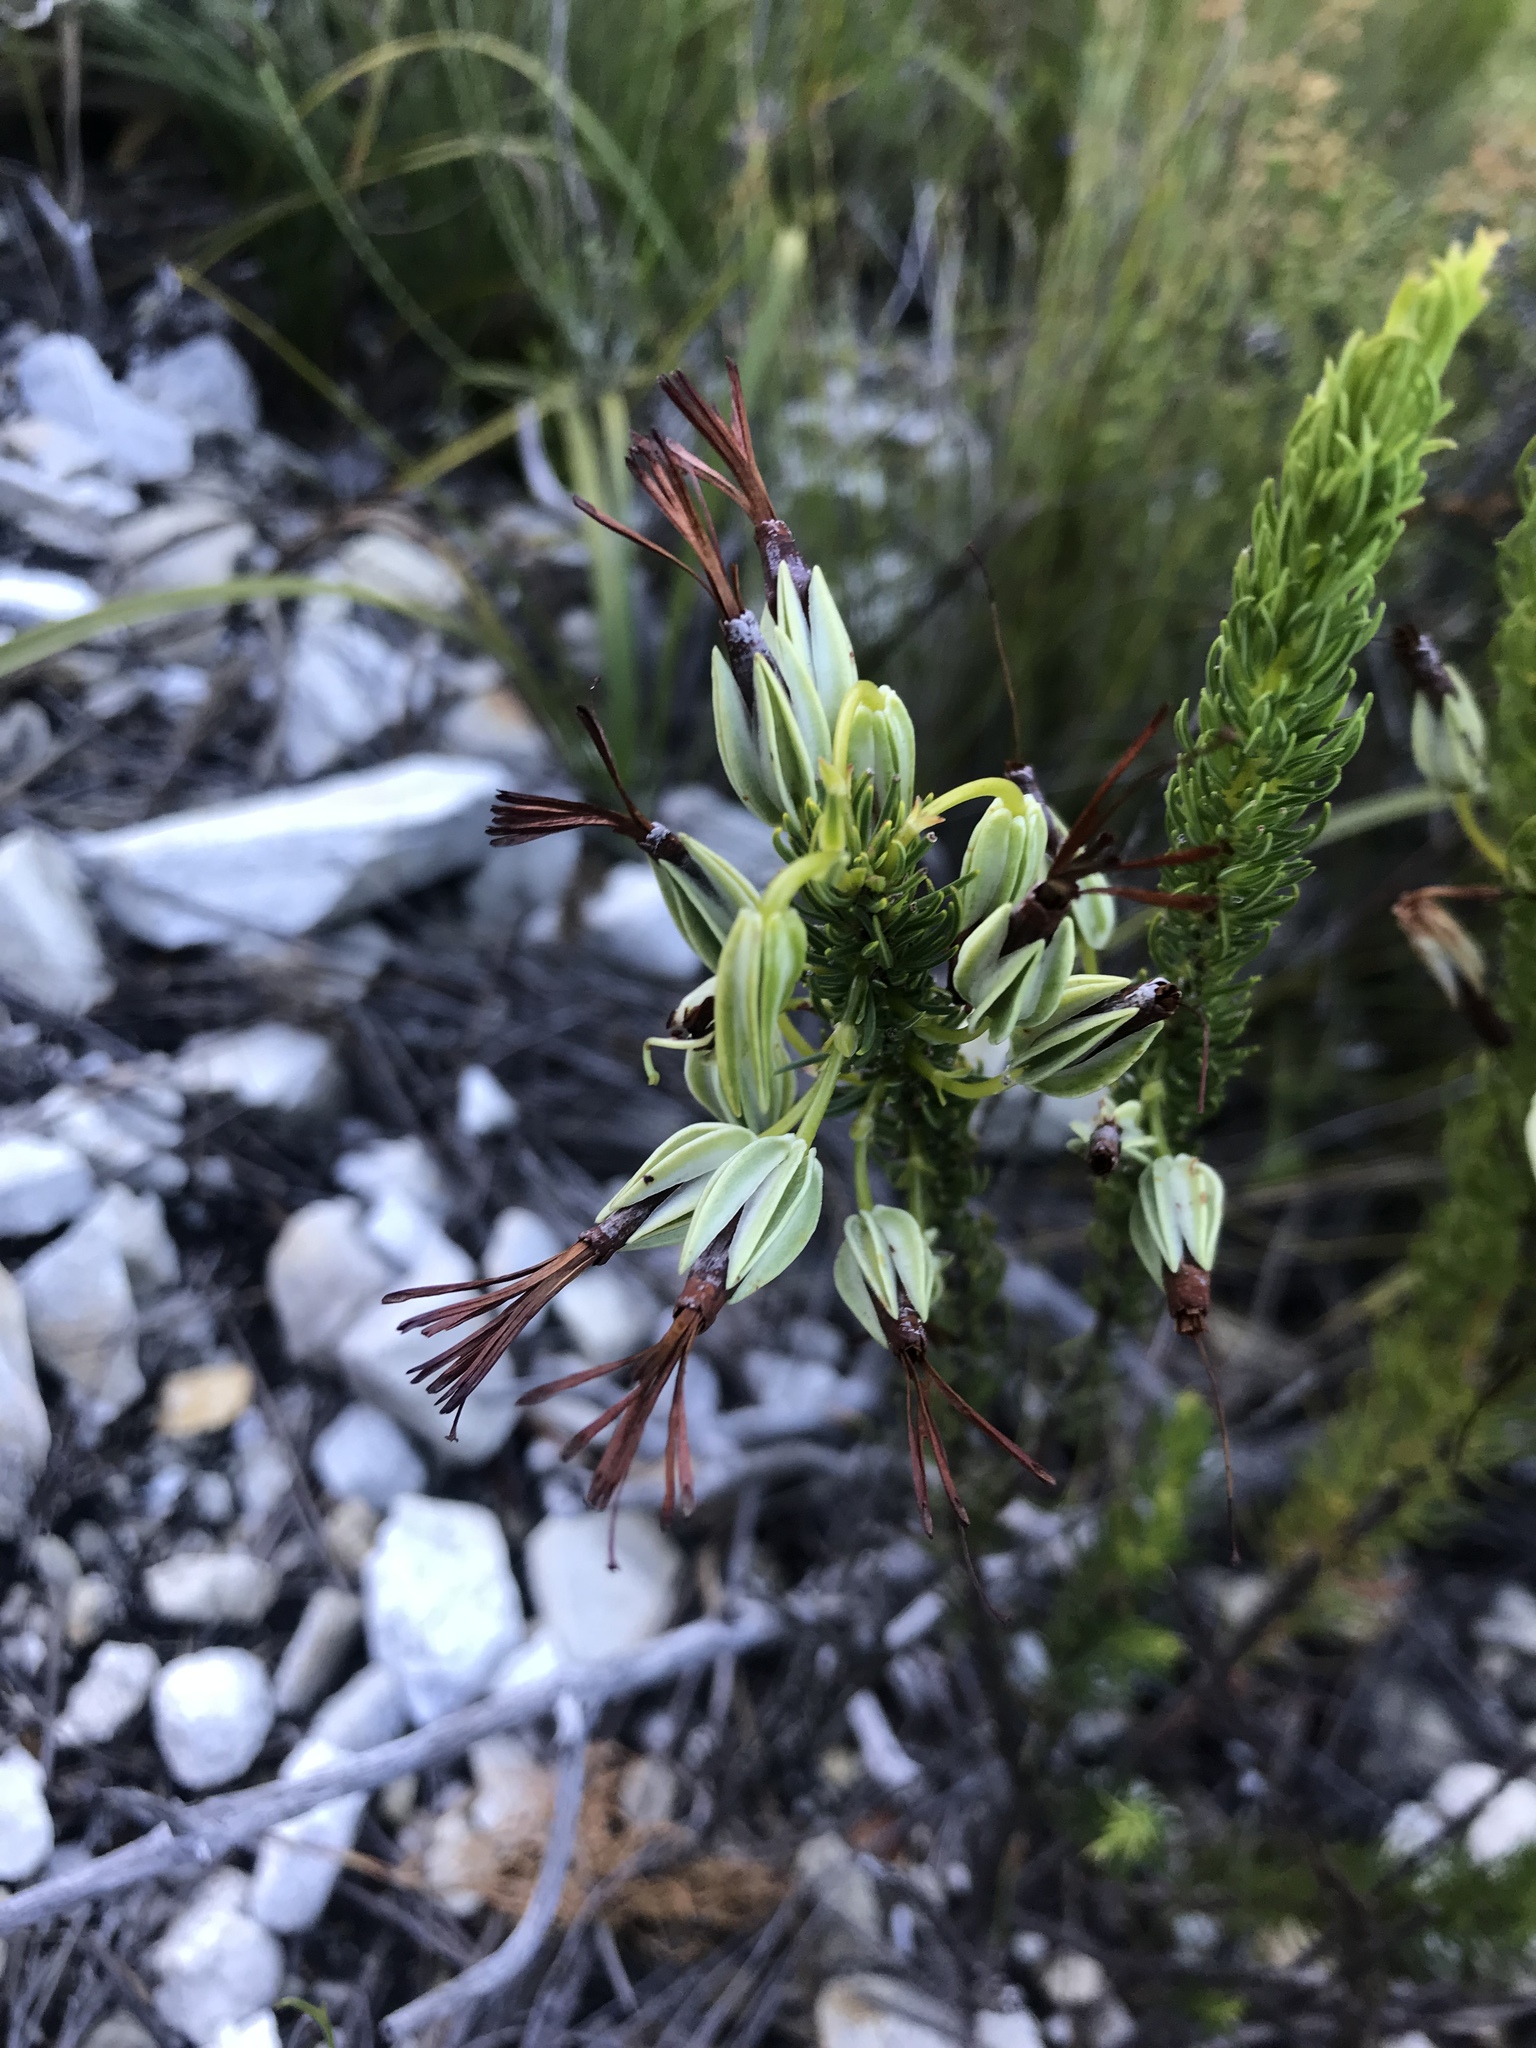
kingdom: Plantae
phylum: Tracheophyta
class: Magnoliopsida
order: Ericales
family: Ericaceae
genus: Erica
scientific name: Erica plukenetii
